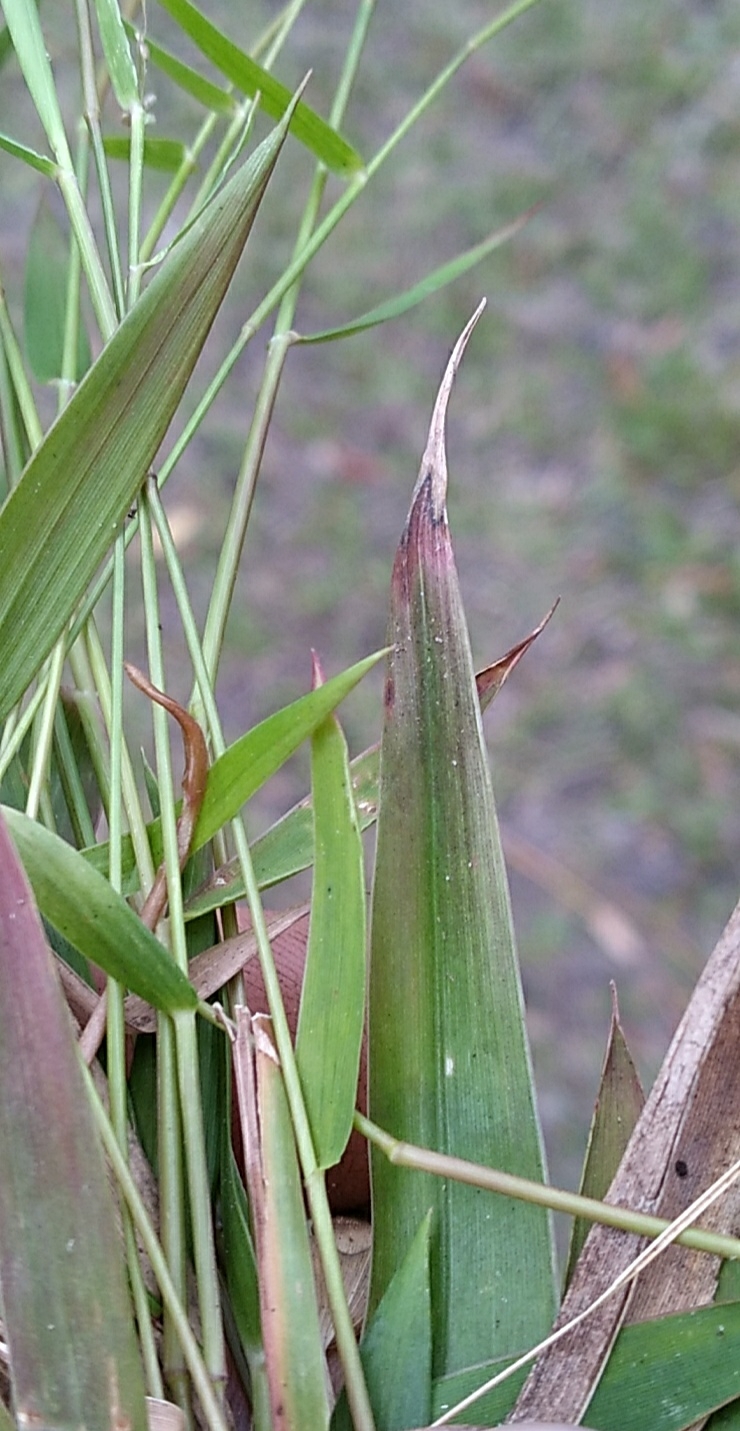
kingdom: Plantae
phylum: Tracheophyta
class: Liliopsida
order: Poales
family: Poaceae
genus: Dichanthelium
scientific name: Dichanthelium tenue
